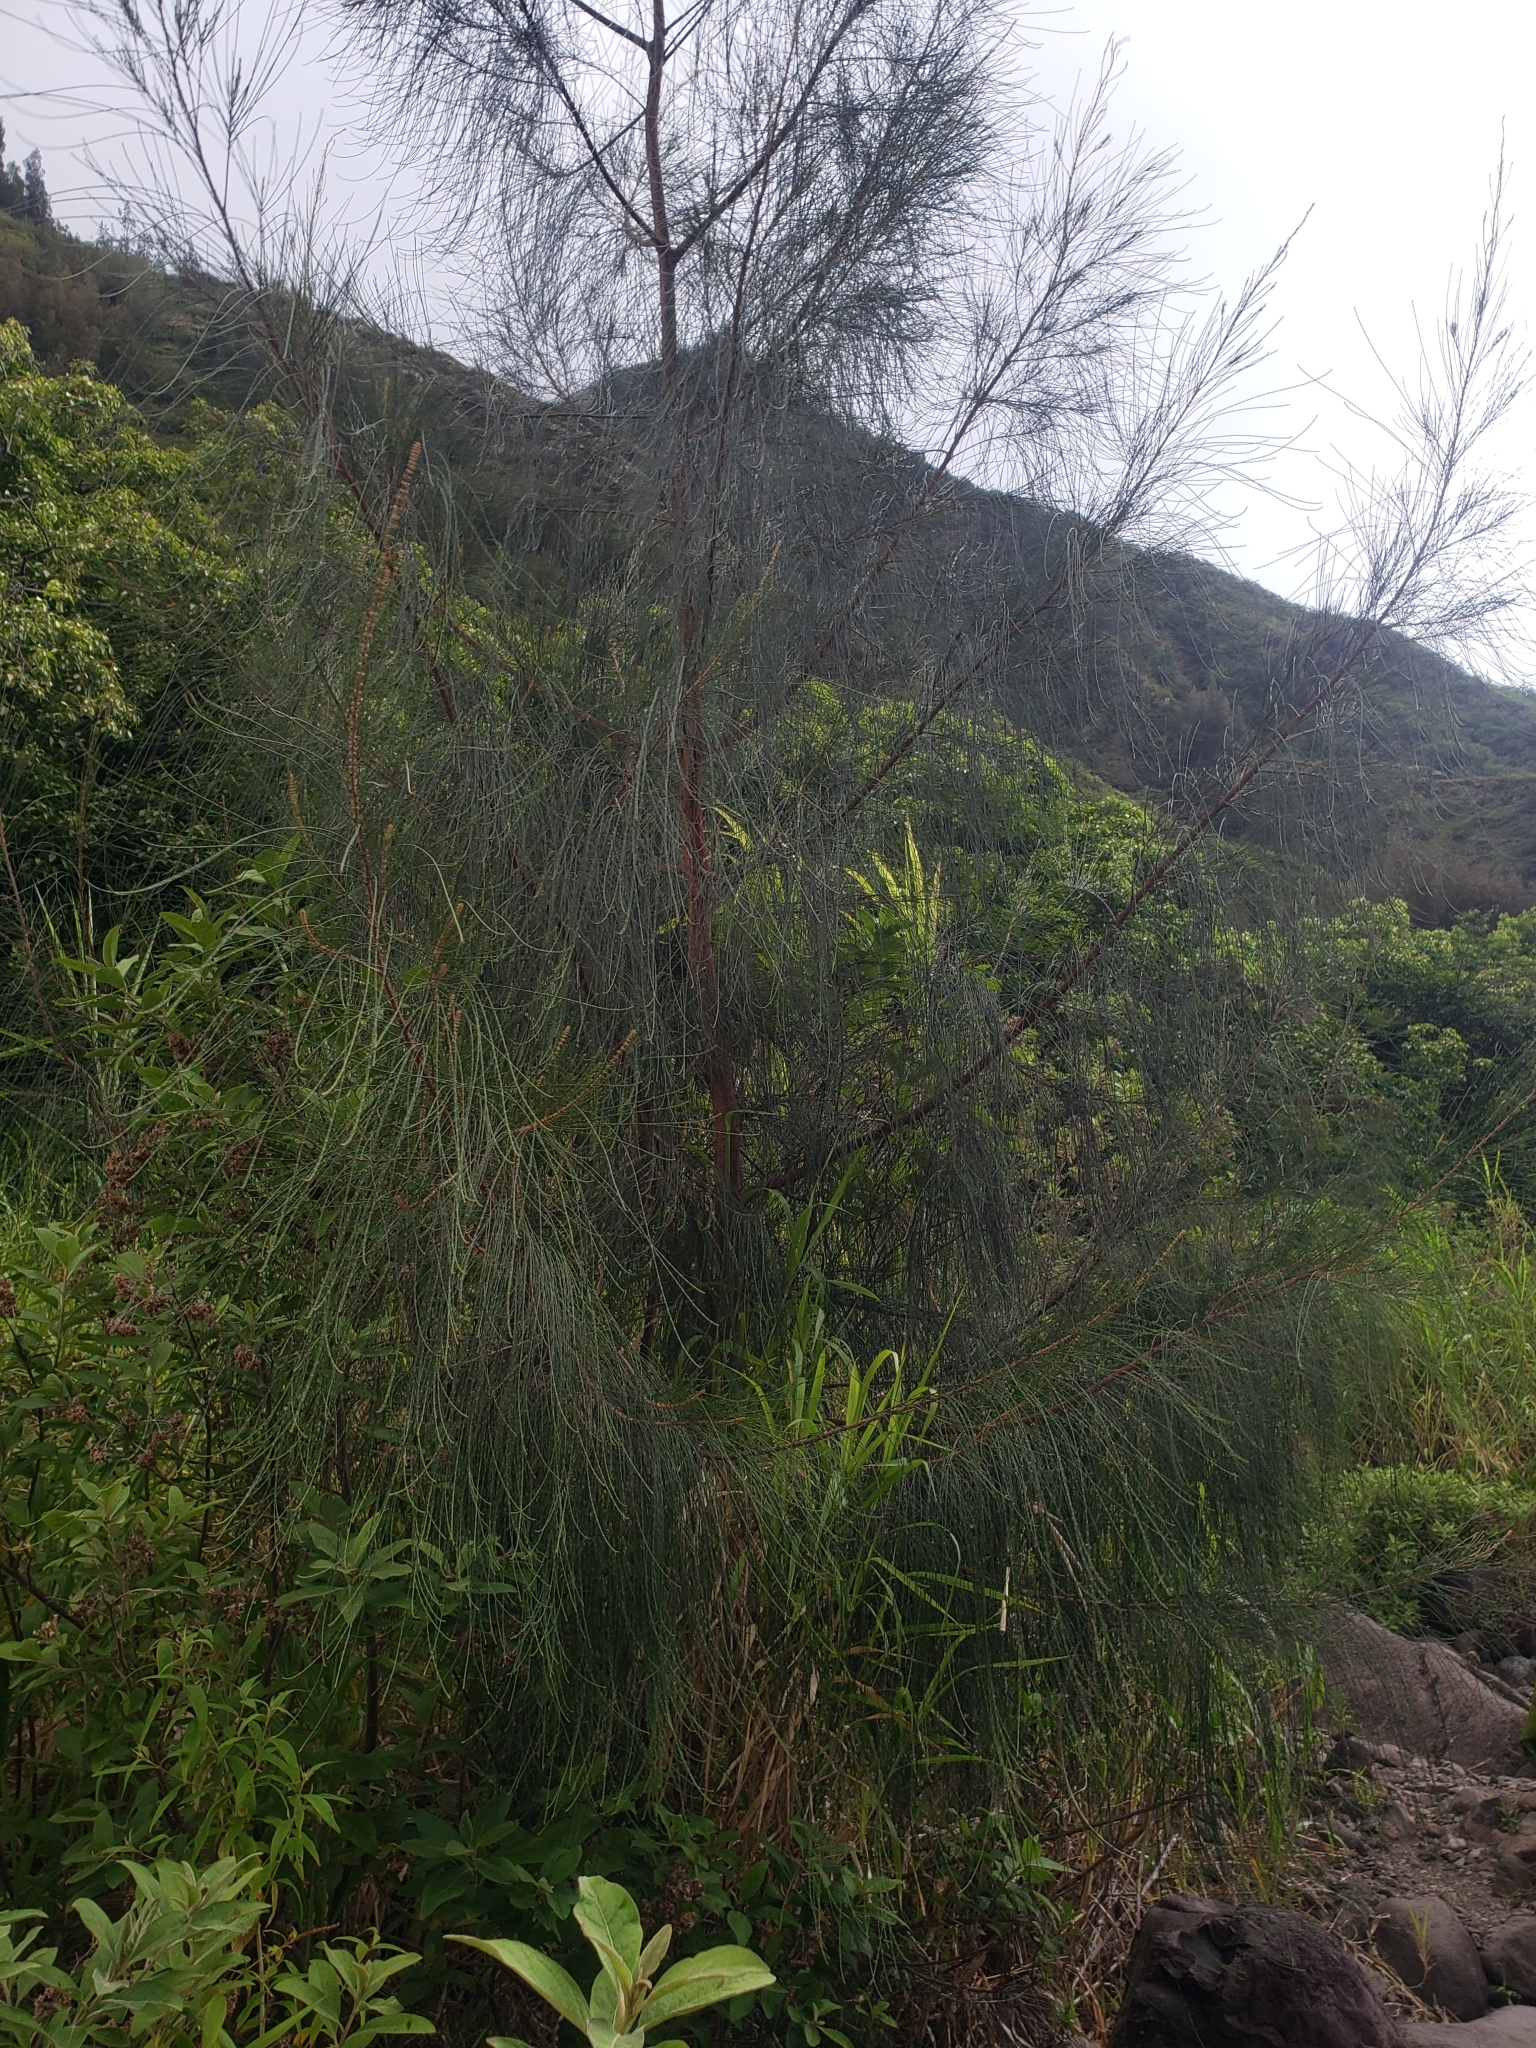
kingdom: Plantae
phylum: Tracheophyta
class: Magnoliopsida
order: Fagales
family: Casuarinaceae
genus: Casuarina
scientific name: Casuarina equisetifolia
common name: Beach sheoak
